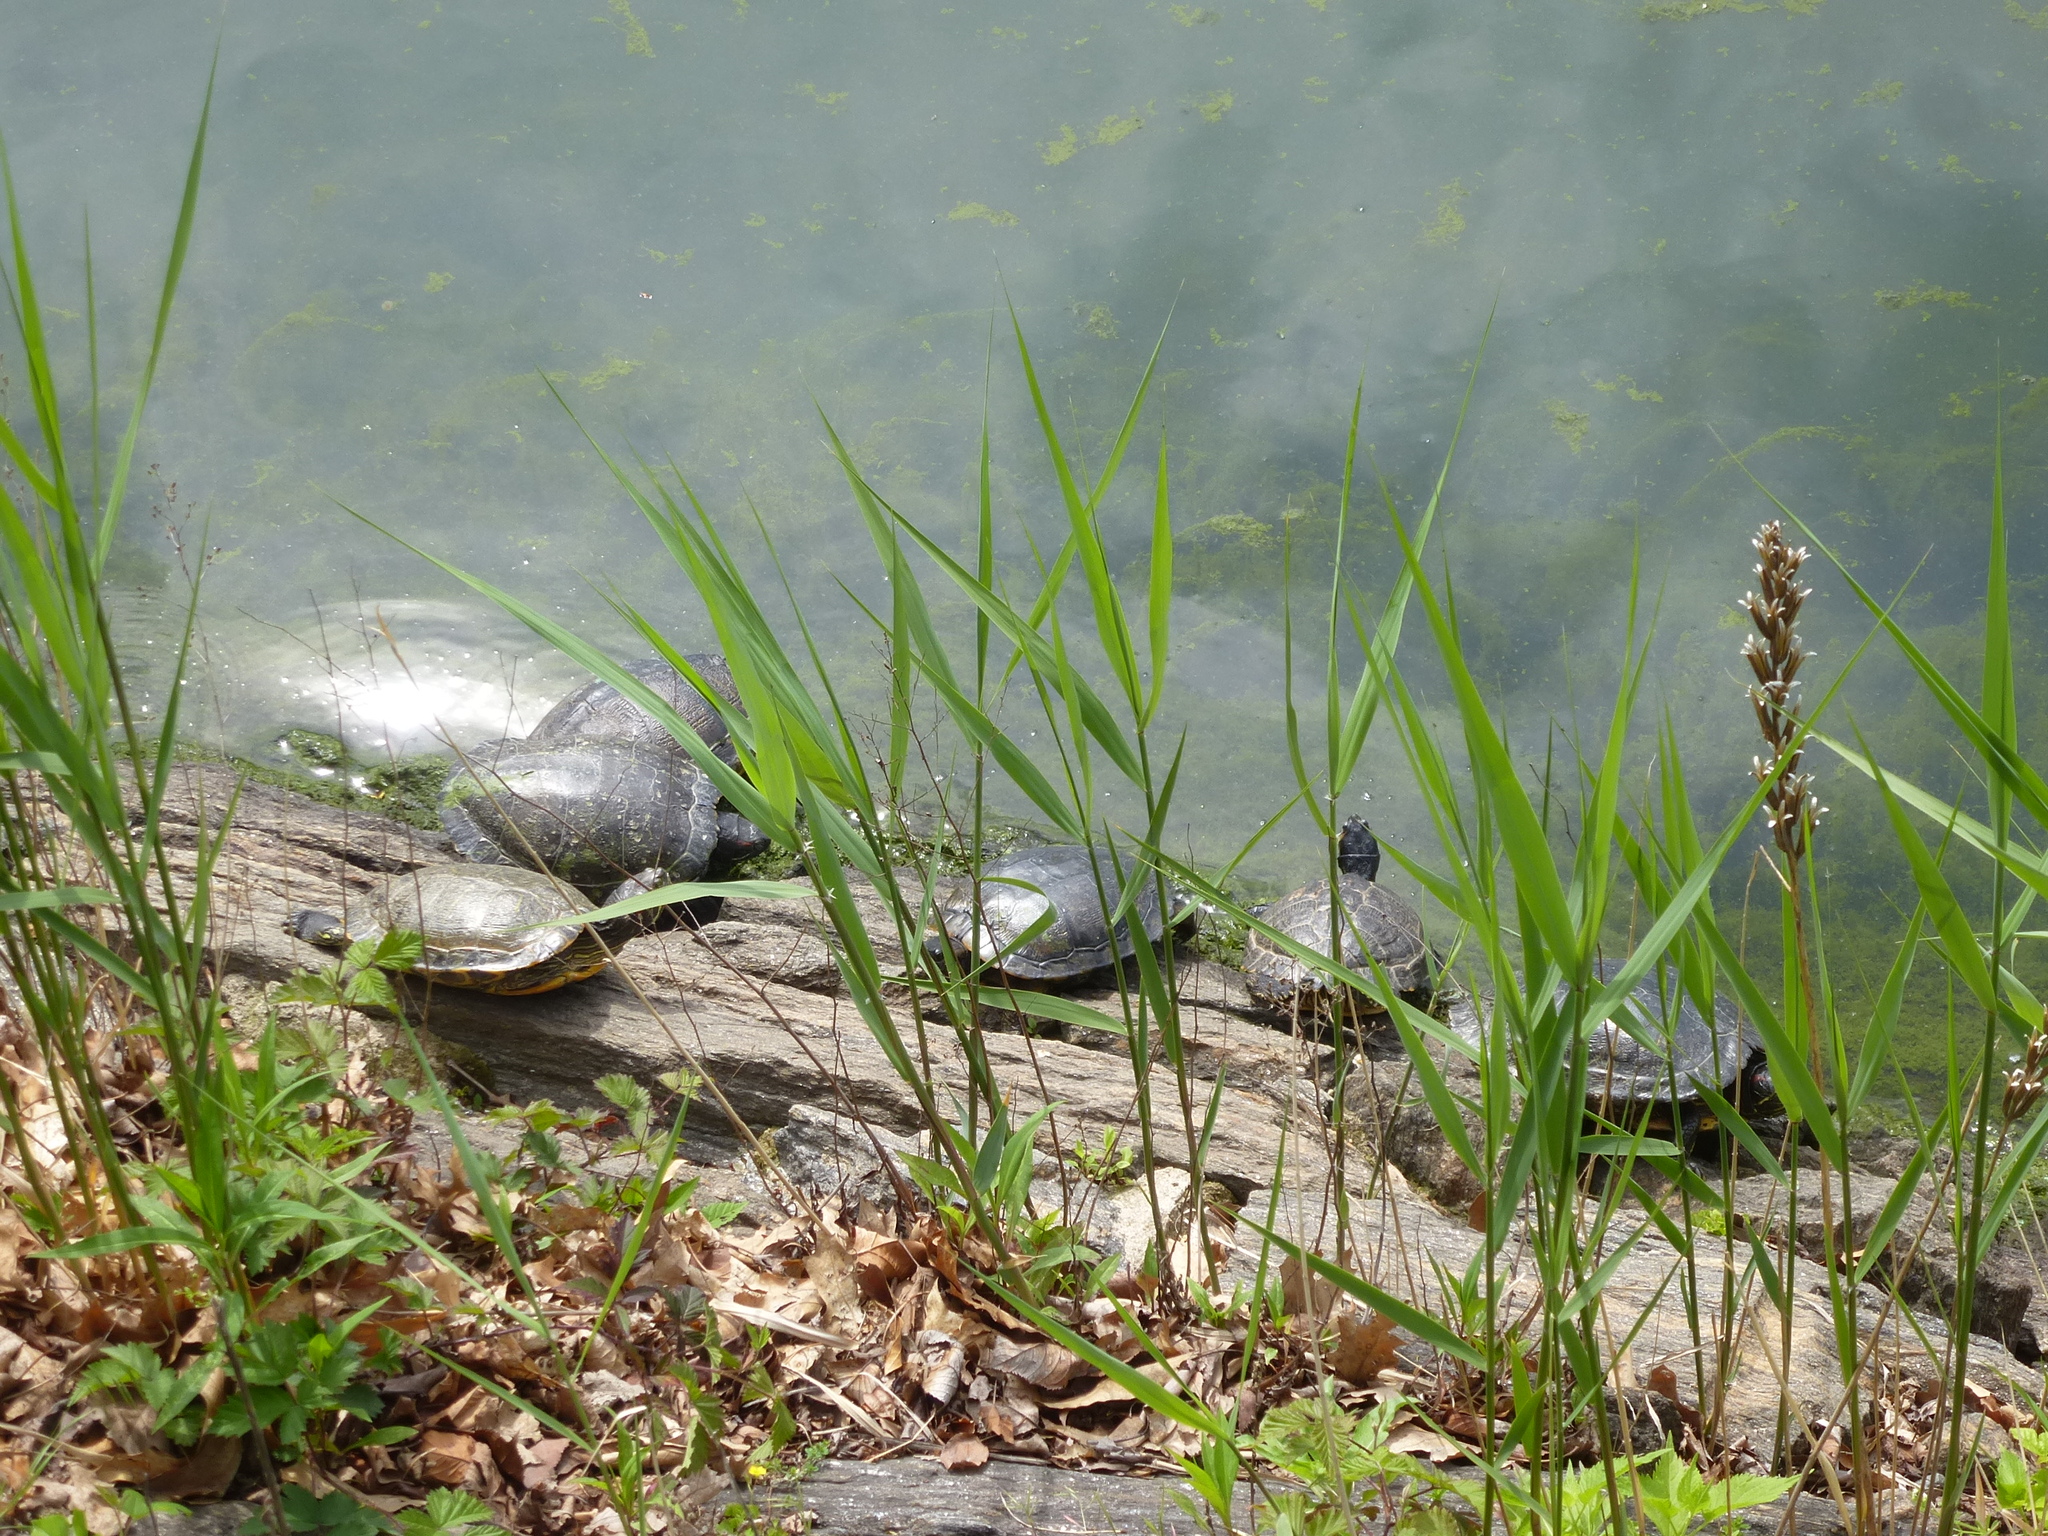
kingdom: Animalia
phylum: Chordata
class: Testudines
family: Emydidae
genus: Trachemys
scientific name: Trachemys scripta
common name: Slider
